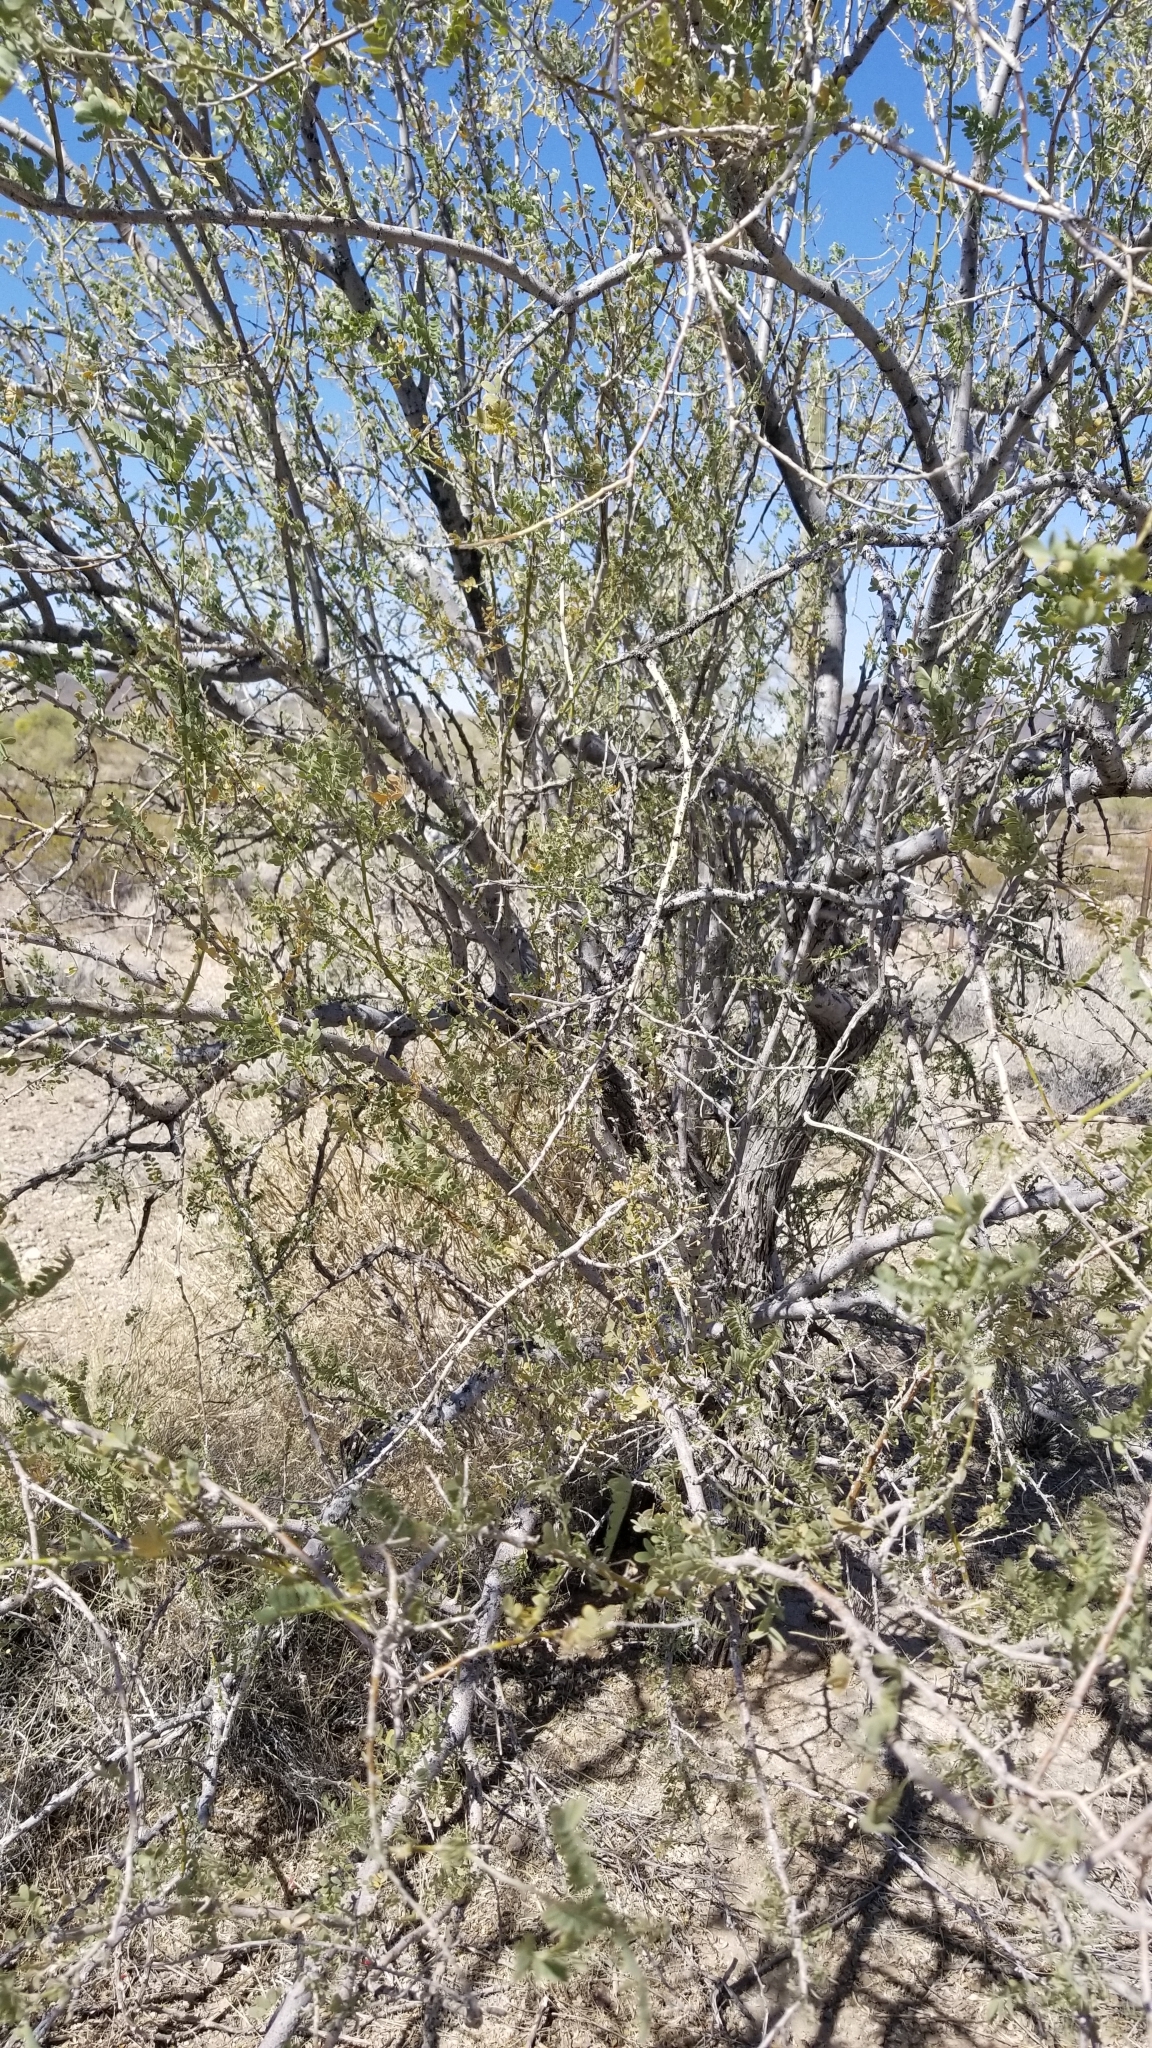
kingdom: Plantae
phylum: Tracheophyta
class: Magnoliopsida
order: Fabales
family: Fabaceae
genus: Olneya
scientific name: Olneya tesota
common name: Desert ironwood
